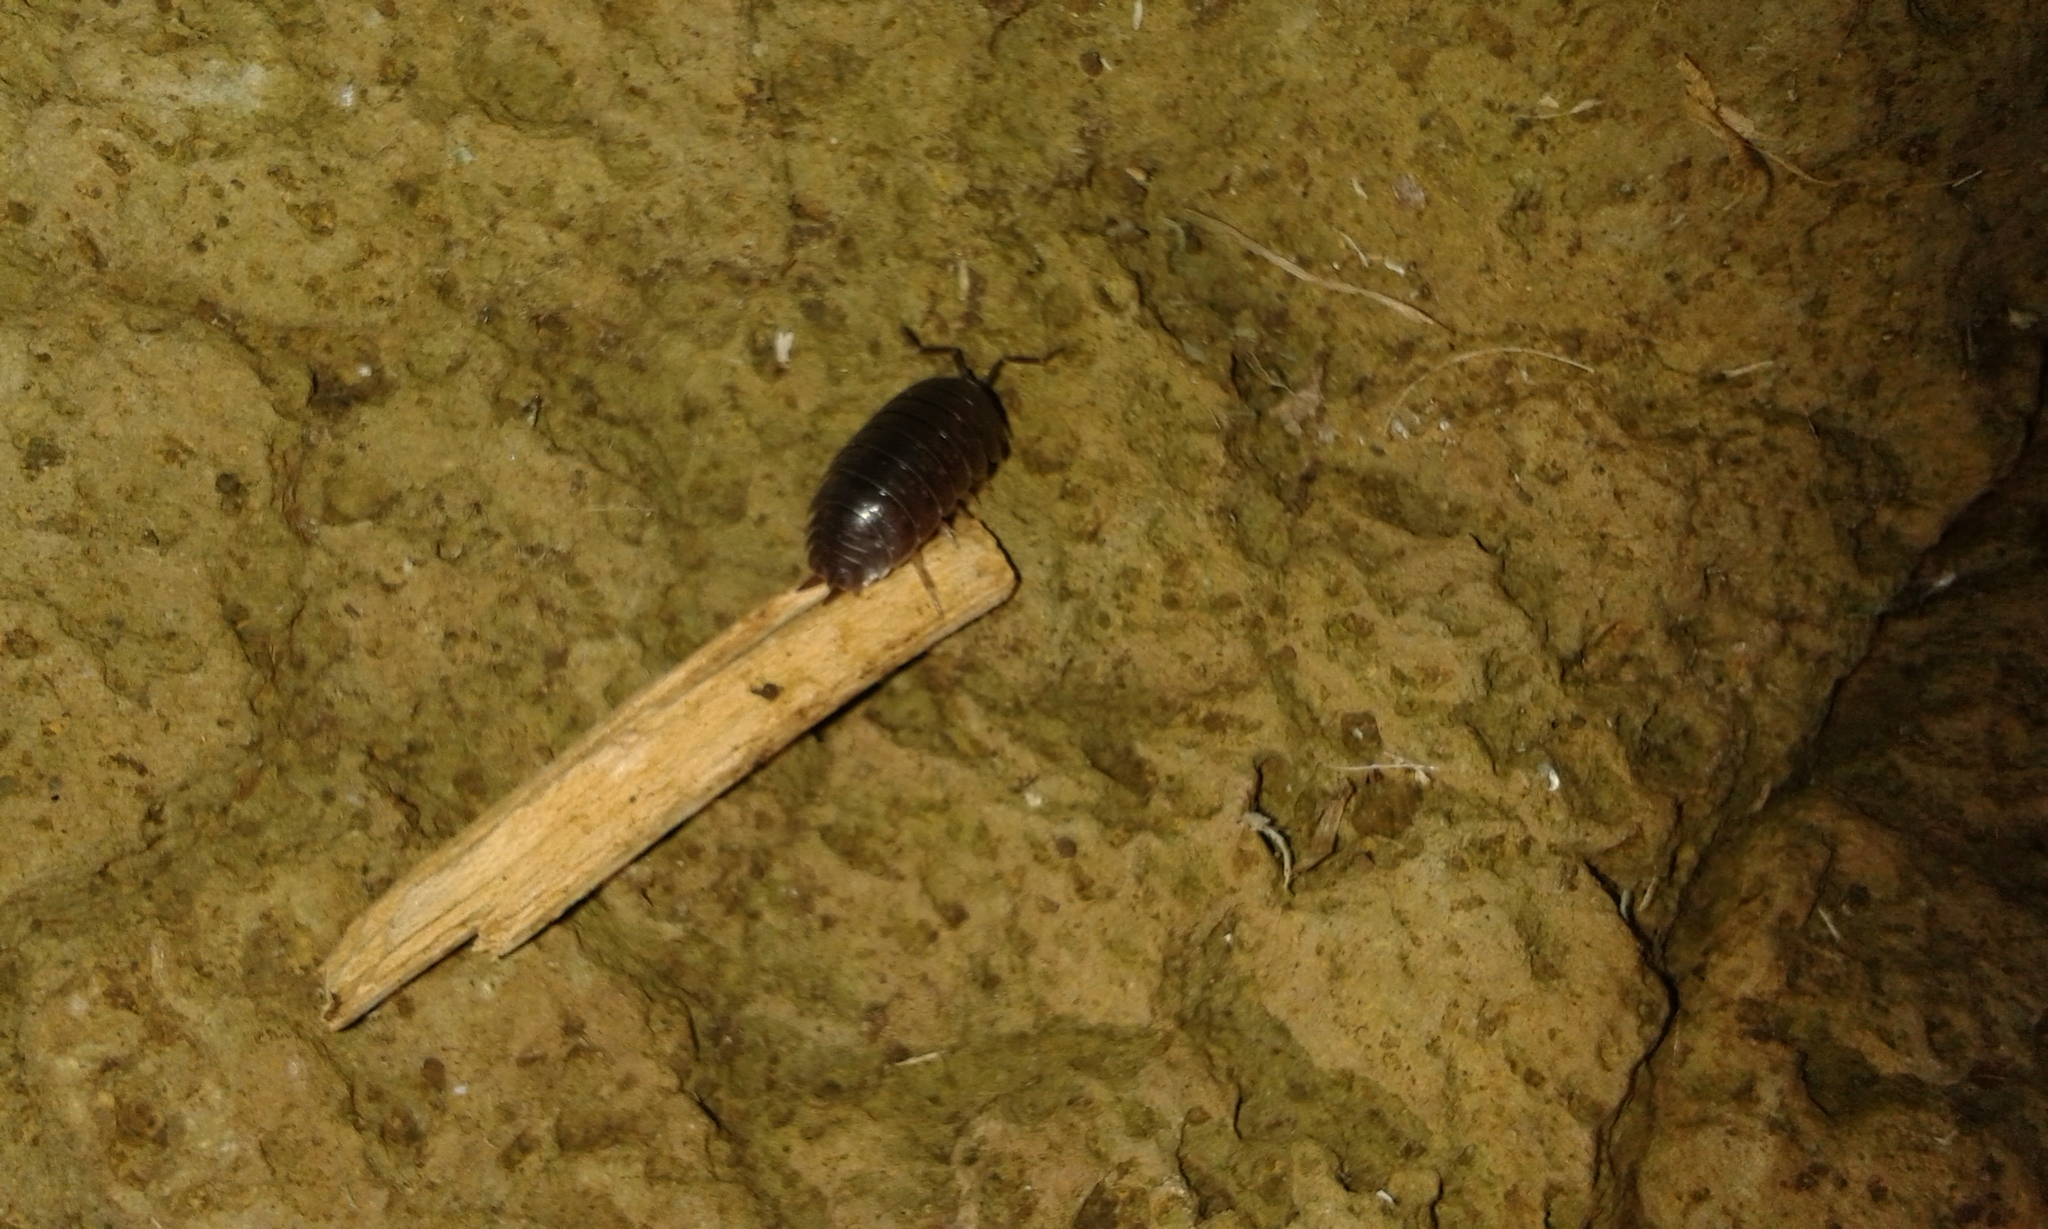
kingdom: Animalia
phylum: Arthropoda
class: Malacostraca
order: Isopoda
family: Porcellionidae
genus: Porcellio
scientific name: Porcellio laevis
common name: Swift woodlouse
